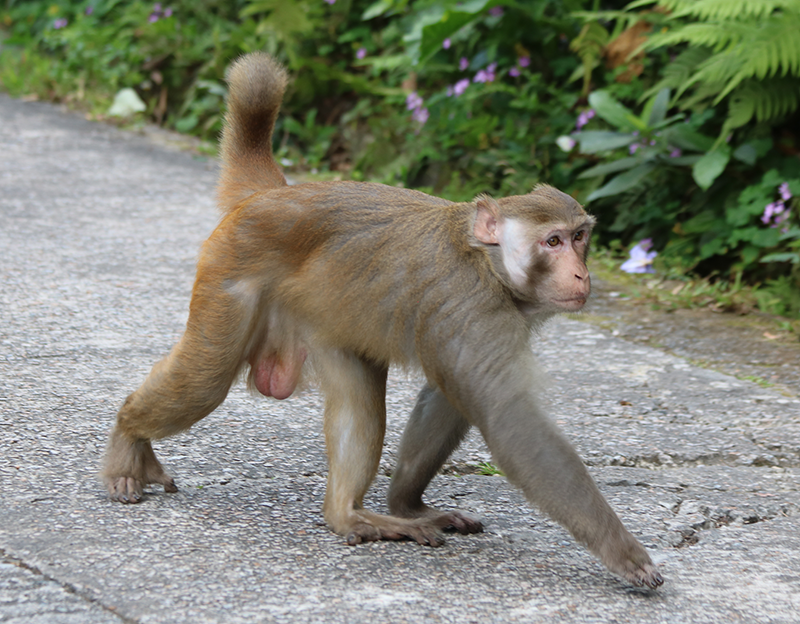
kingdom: Animalia
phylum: Chordata
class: Mammalia
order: Primates
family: Cercopithecidae
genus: Macaca
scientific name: Macaca mulatta
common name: Rhesus monkey
